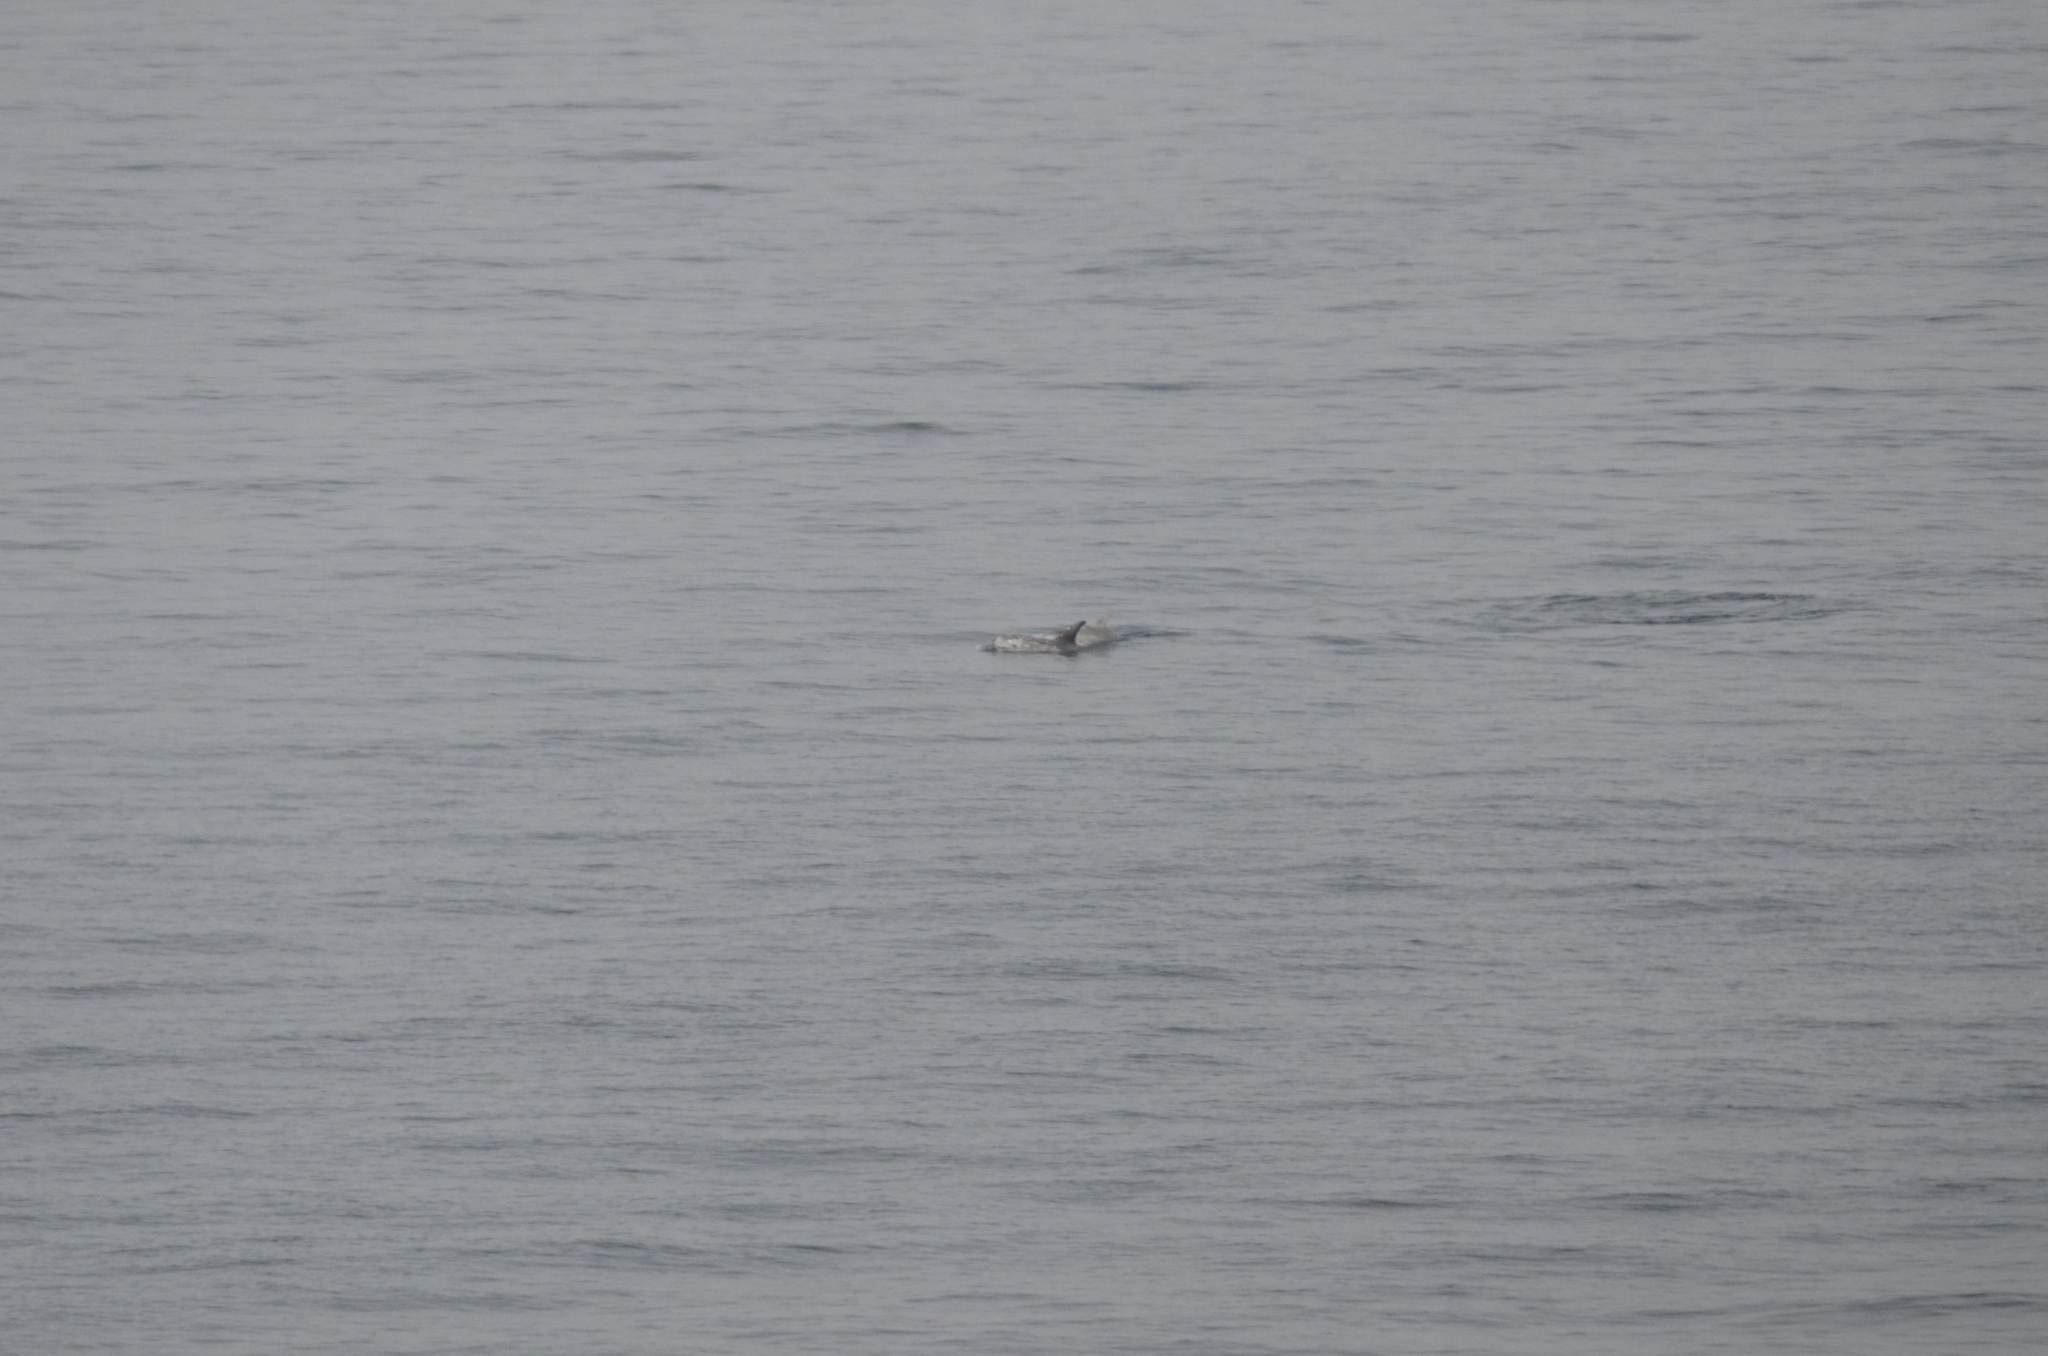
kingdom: Animalia
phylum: Chordata
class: Mammalia
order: Cetacea
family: Delphinidae
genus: Grampus
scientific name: Grampus griseus
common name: Risso's dolphin
